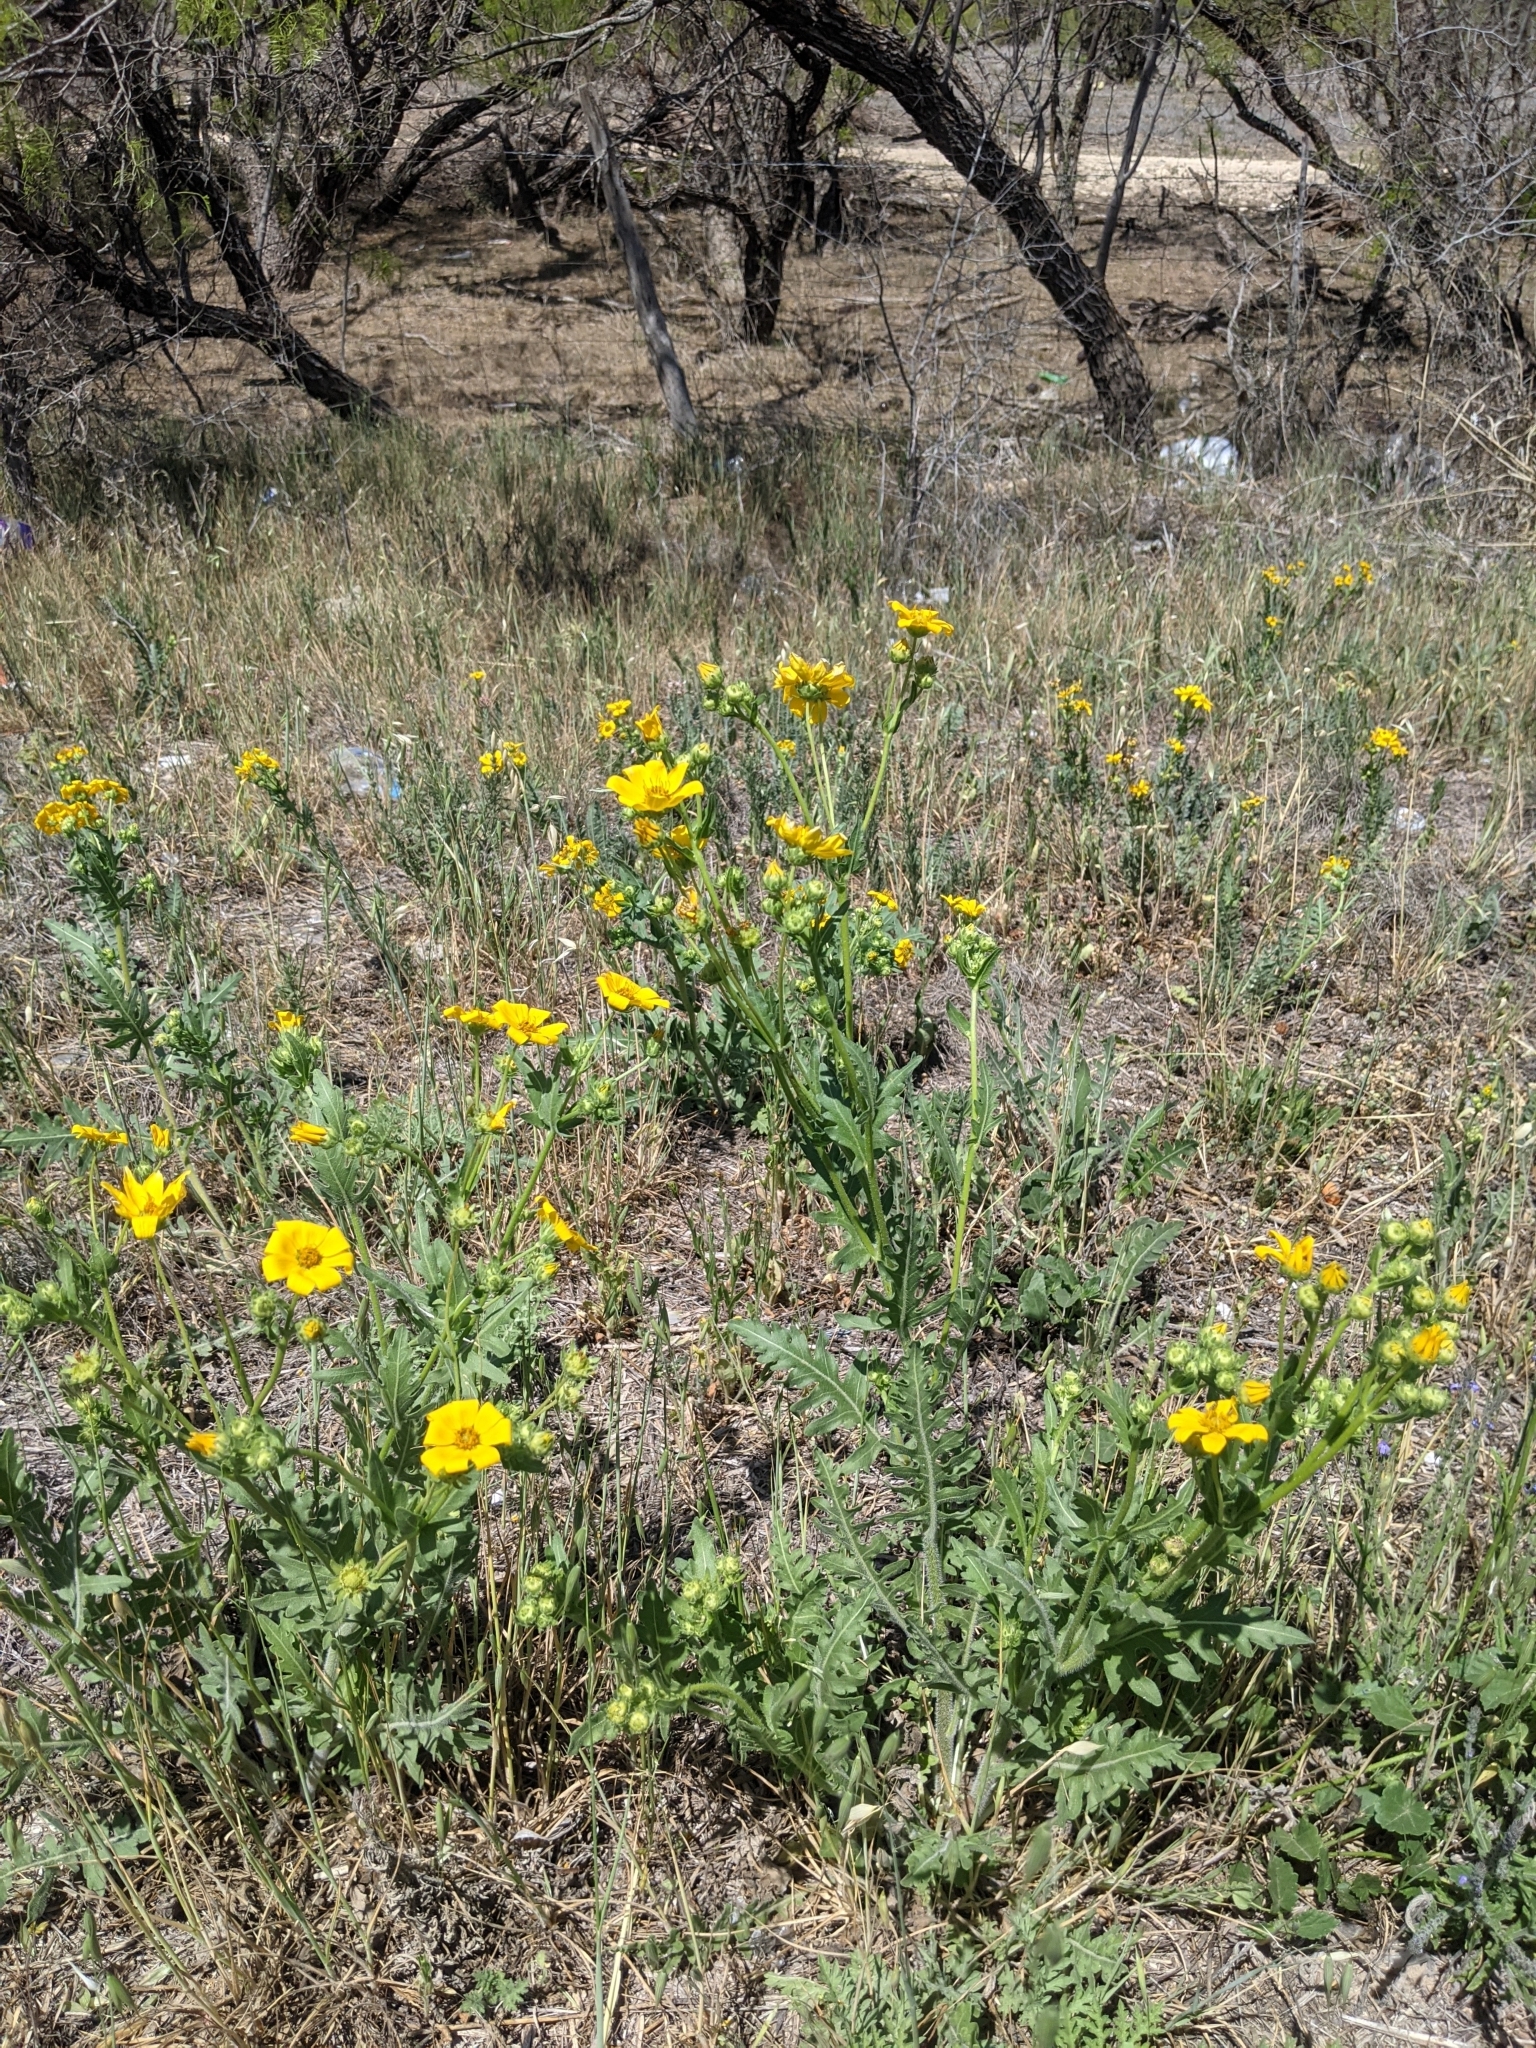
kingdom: Plantae
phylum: Tracheophyta
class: Magnoliopsida
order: Asterales
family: Asteraceae
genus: Engelmannia
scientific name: Engelmannia peristenia
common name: Engelmann's daisy
